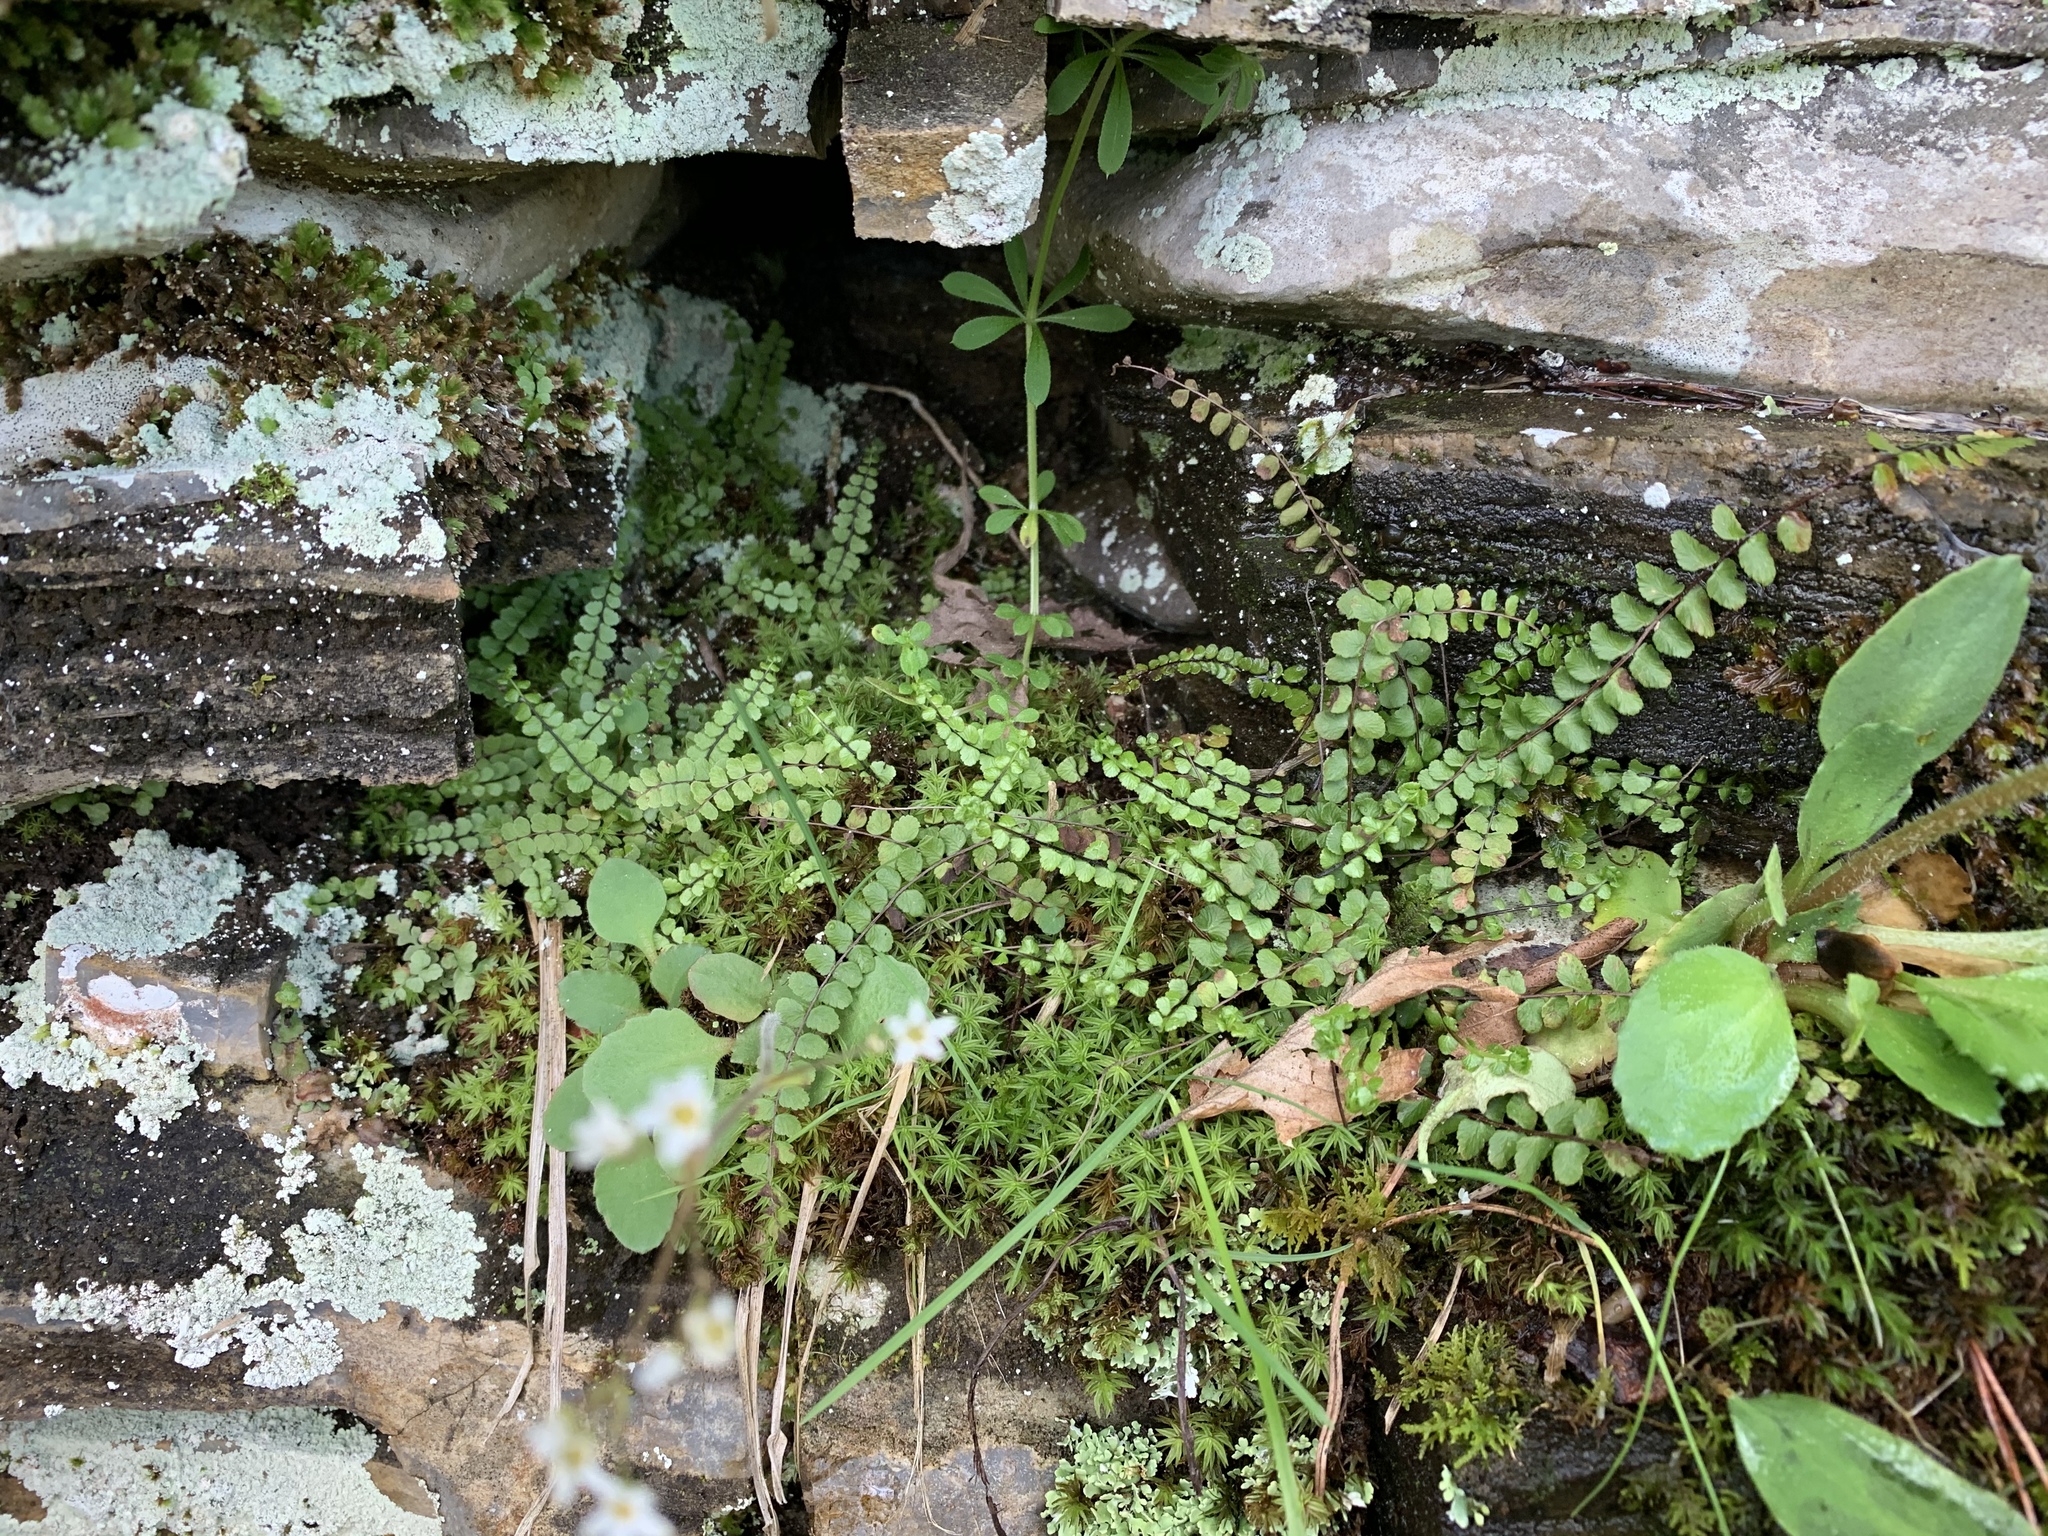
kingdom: Plantae
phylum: Tracheophyta
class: Polypodiopsida
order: Polypodiales
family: Aspleniaceae
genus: Asplenium
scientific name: Asplenium trichomanes
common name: Maidenhair spleenwort
